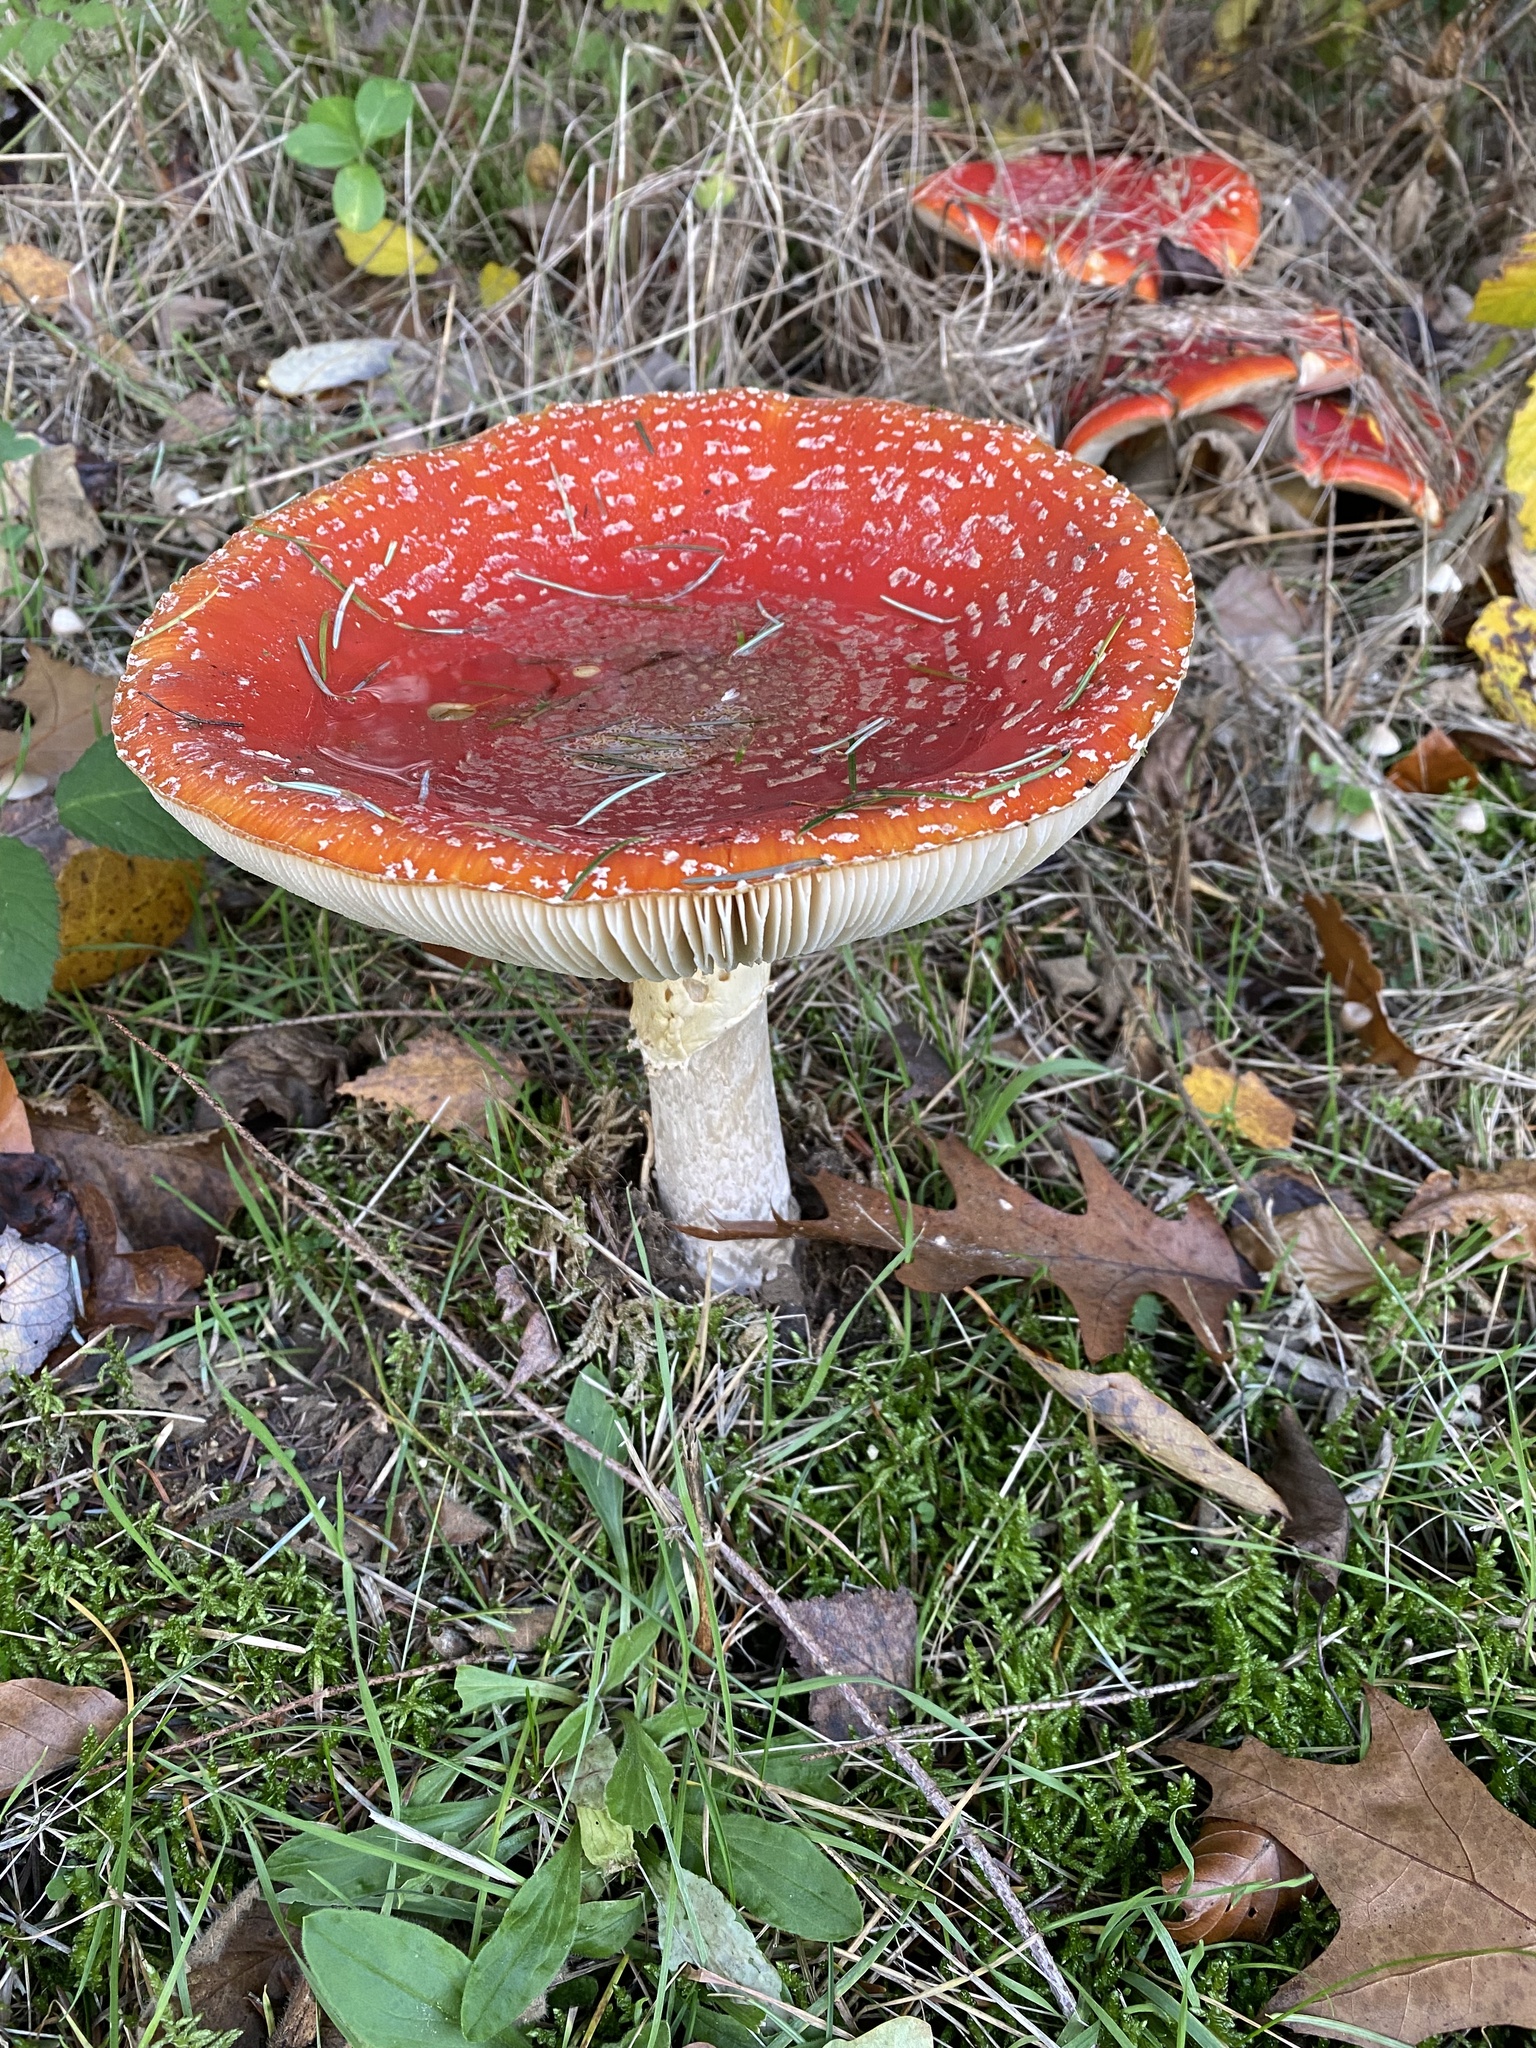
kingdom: Fungi
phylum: Basidiomycota
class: Agaricomycetes
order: Agaricales
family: Amanitaceae
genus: Amanita
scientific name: Amanita muscaria
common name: Fly agaric
